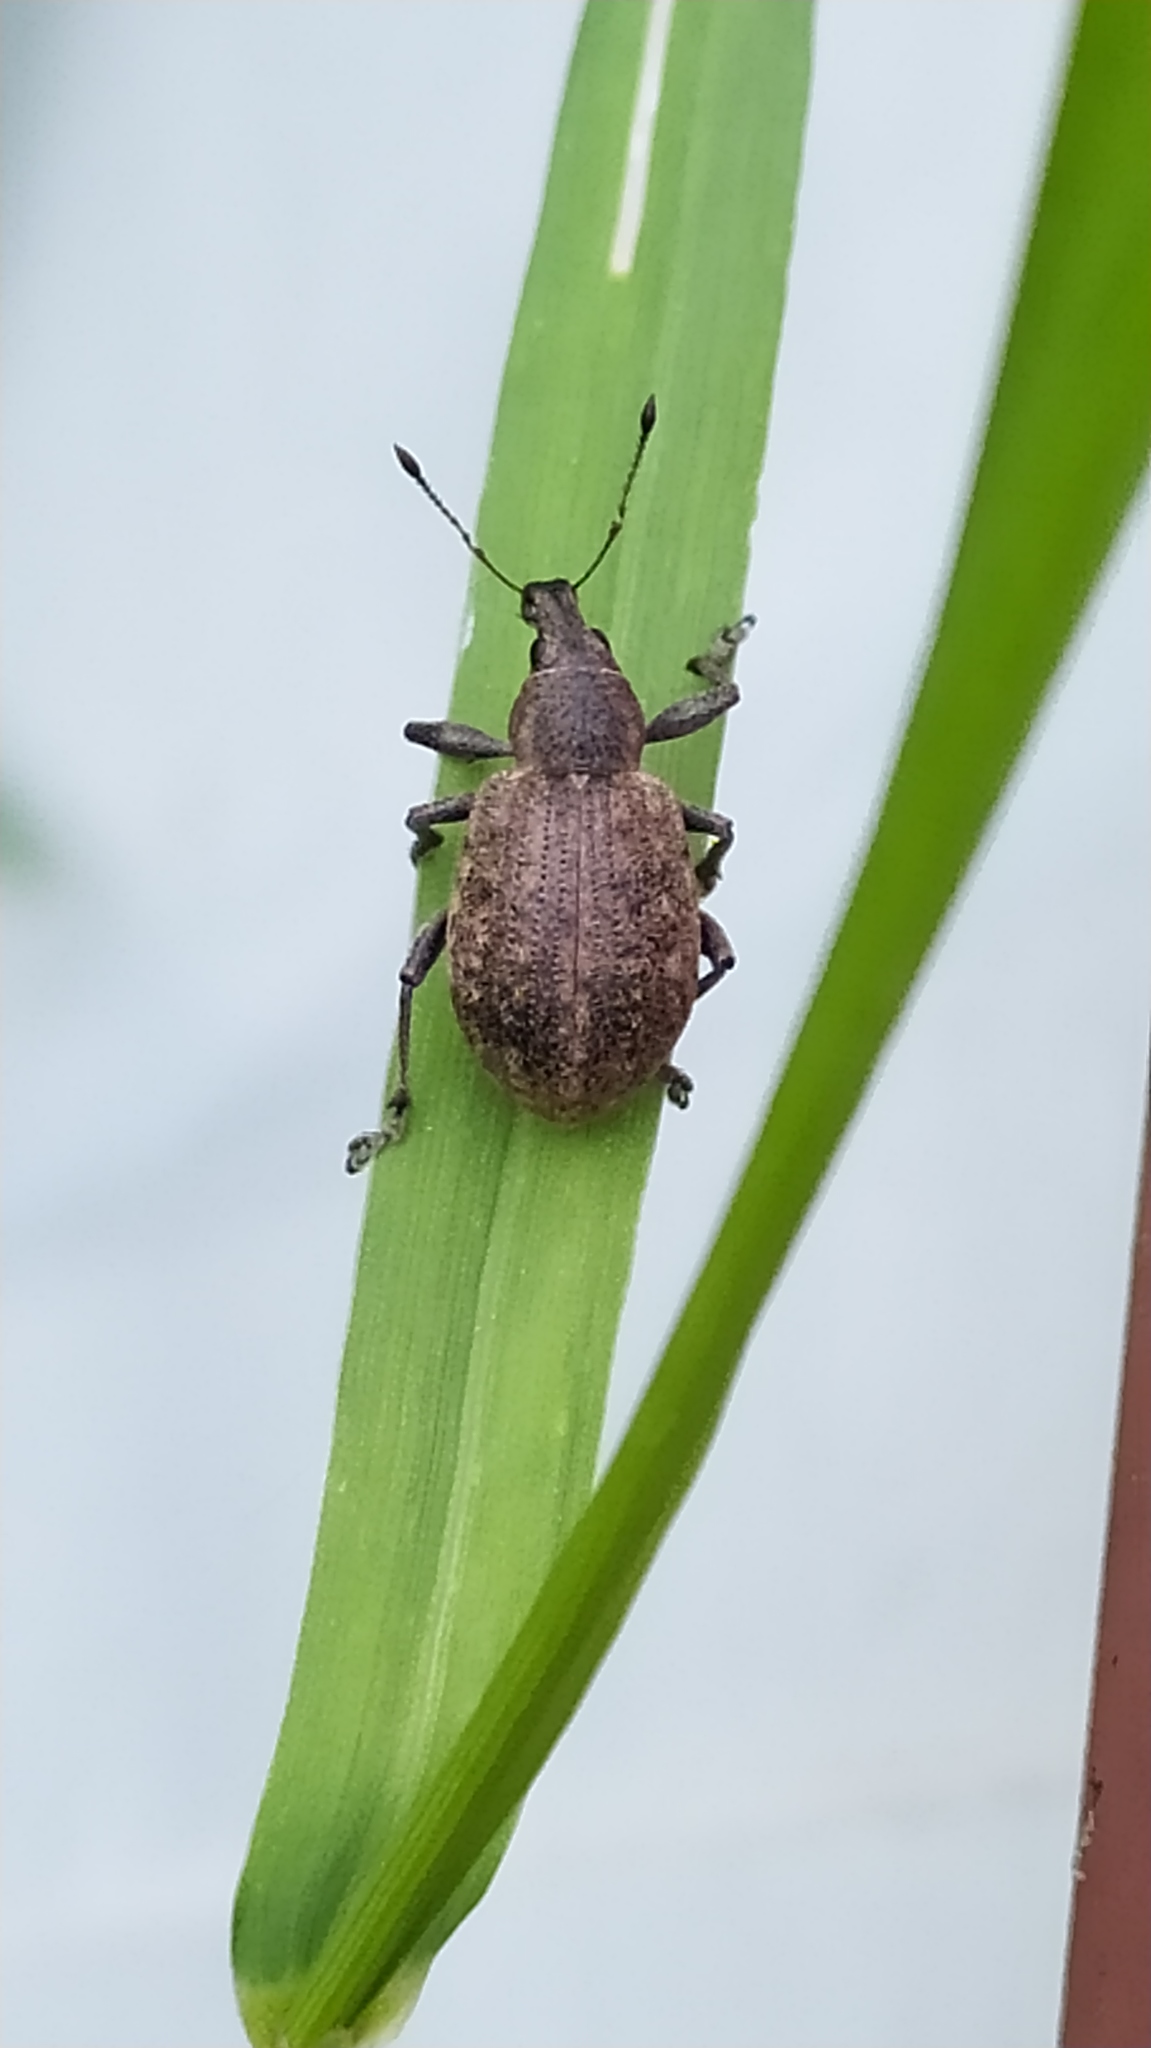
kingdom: Animalia
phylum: Arthropoda
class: Insecta
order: Coleoptera
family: Curculionidae
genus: Liophloeus
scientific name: Liophloeus tessulatus
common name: Weevil
